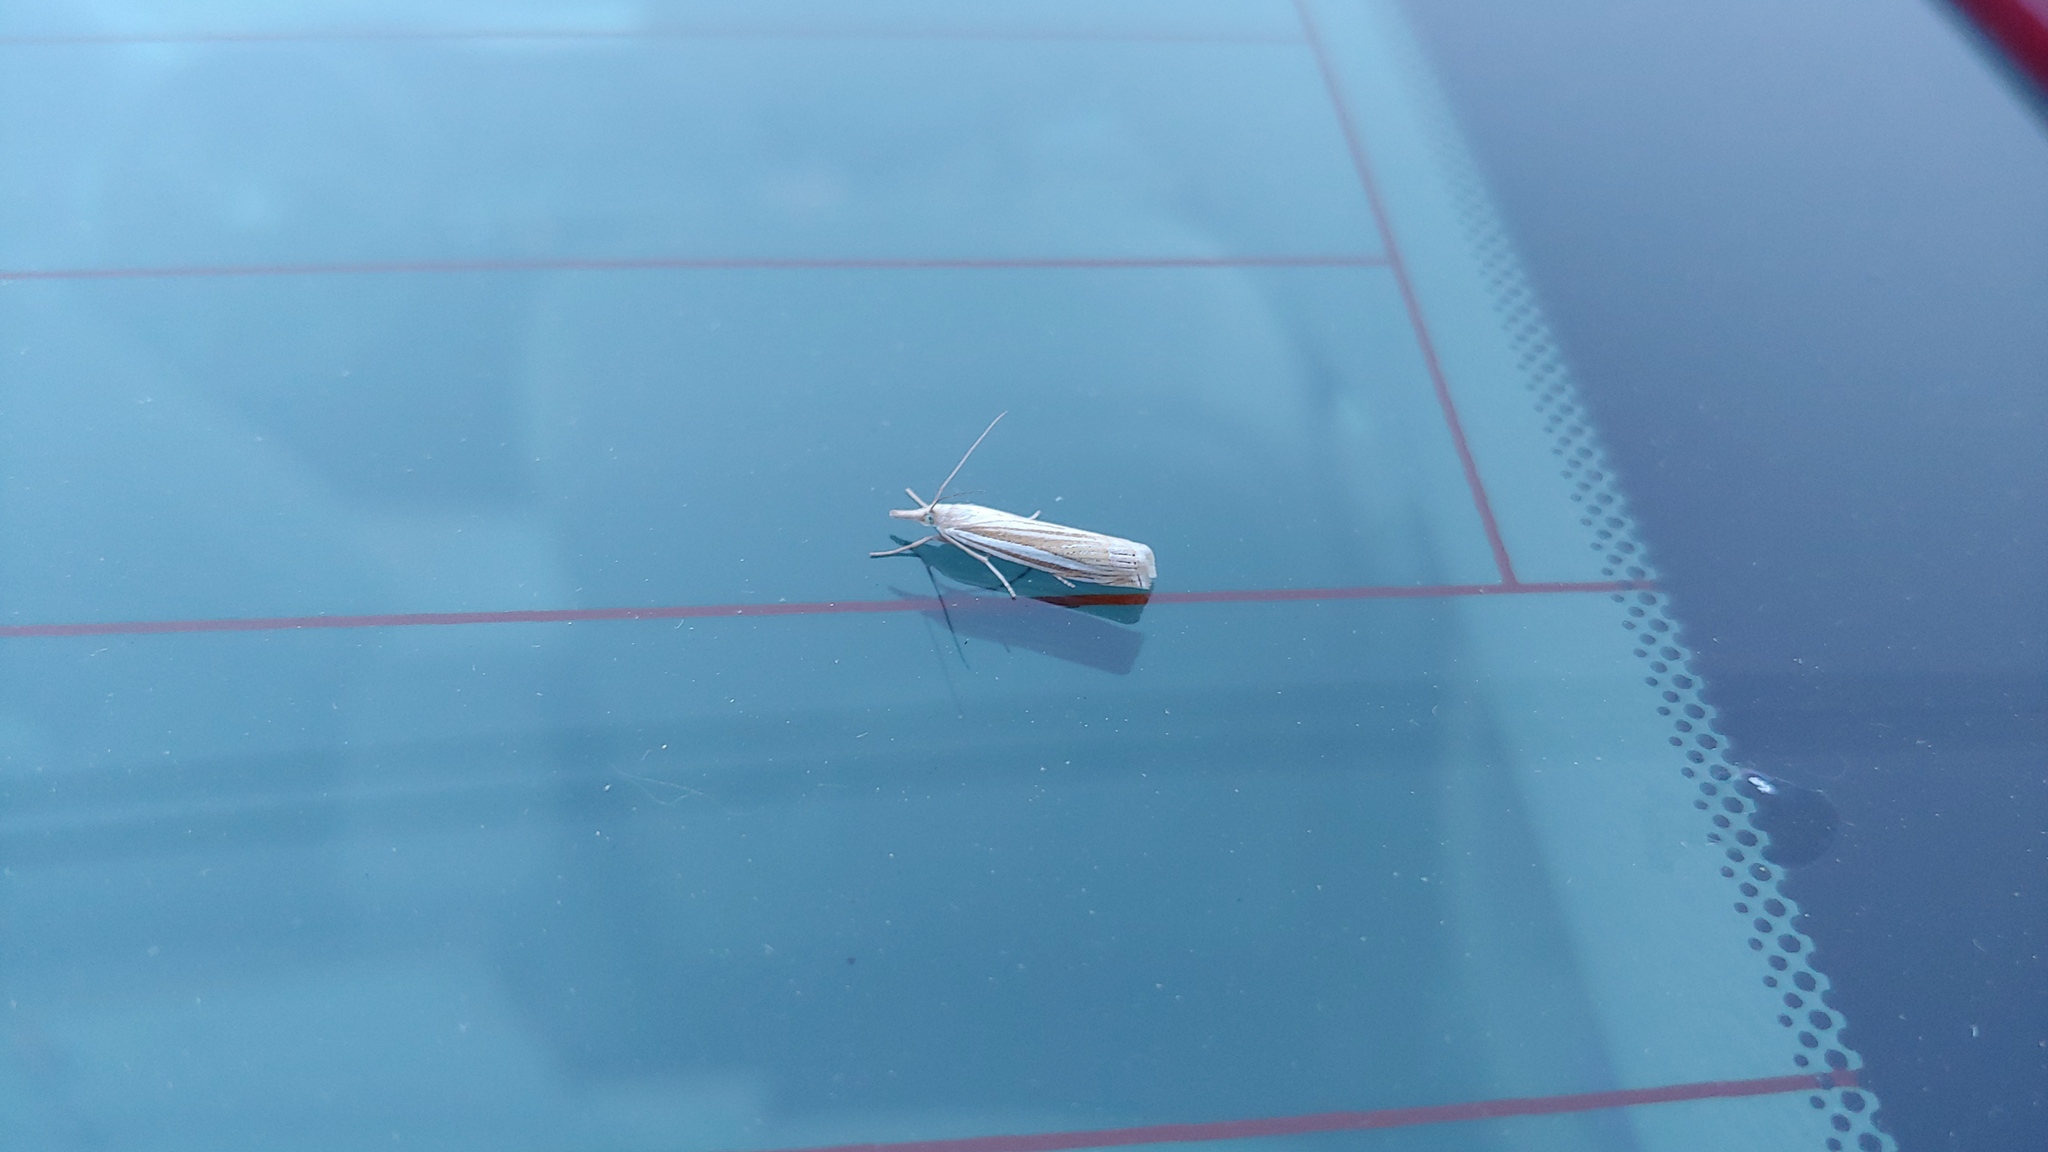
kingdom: Animalia
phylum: Arthropoda
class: Insecta
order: Lepidoptera
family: Crambidae
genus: Crambus
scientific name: Crambus laqueatellus
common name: Eastern grass-veneer
